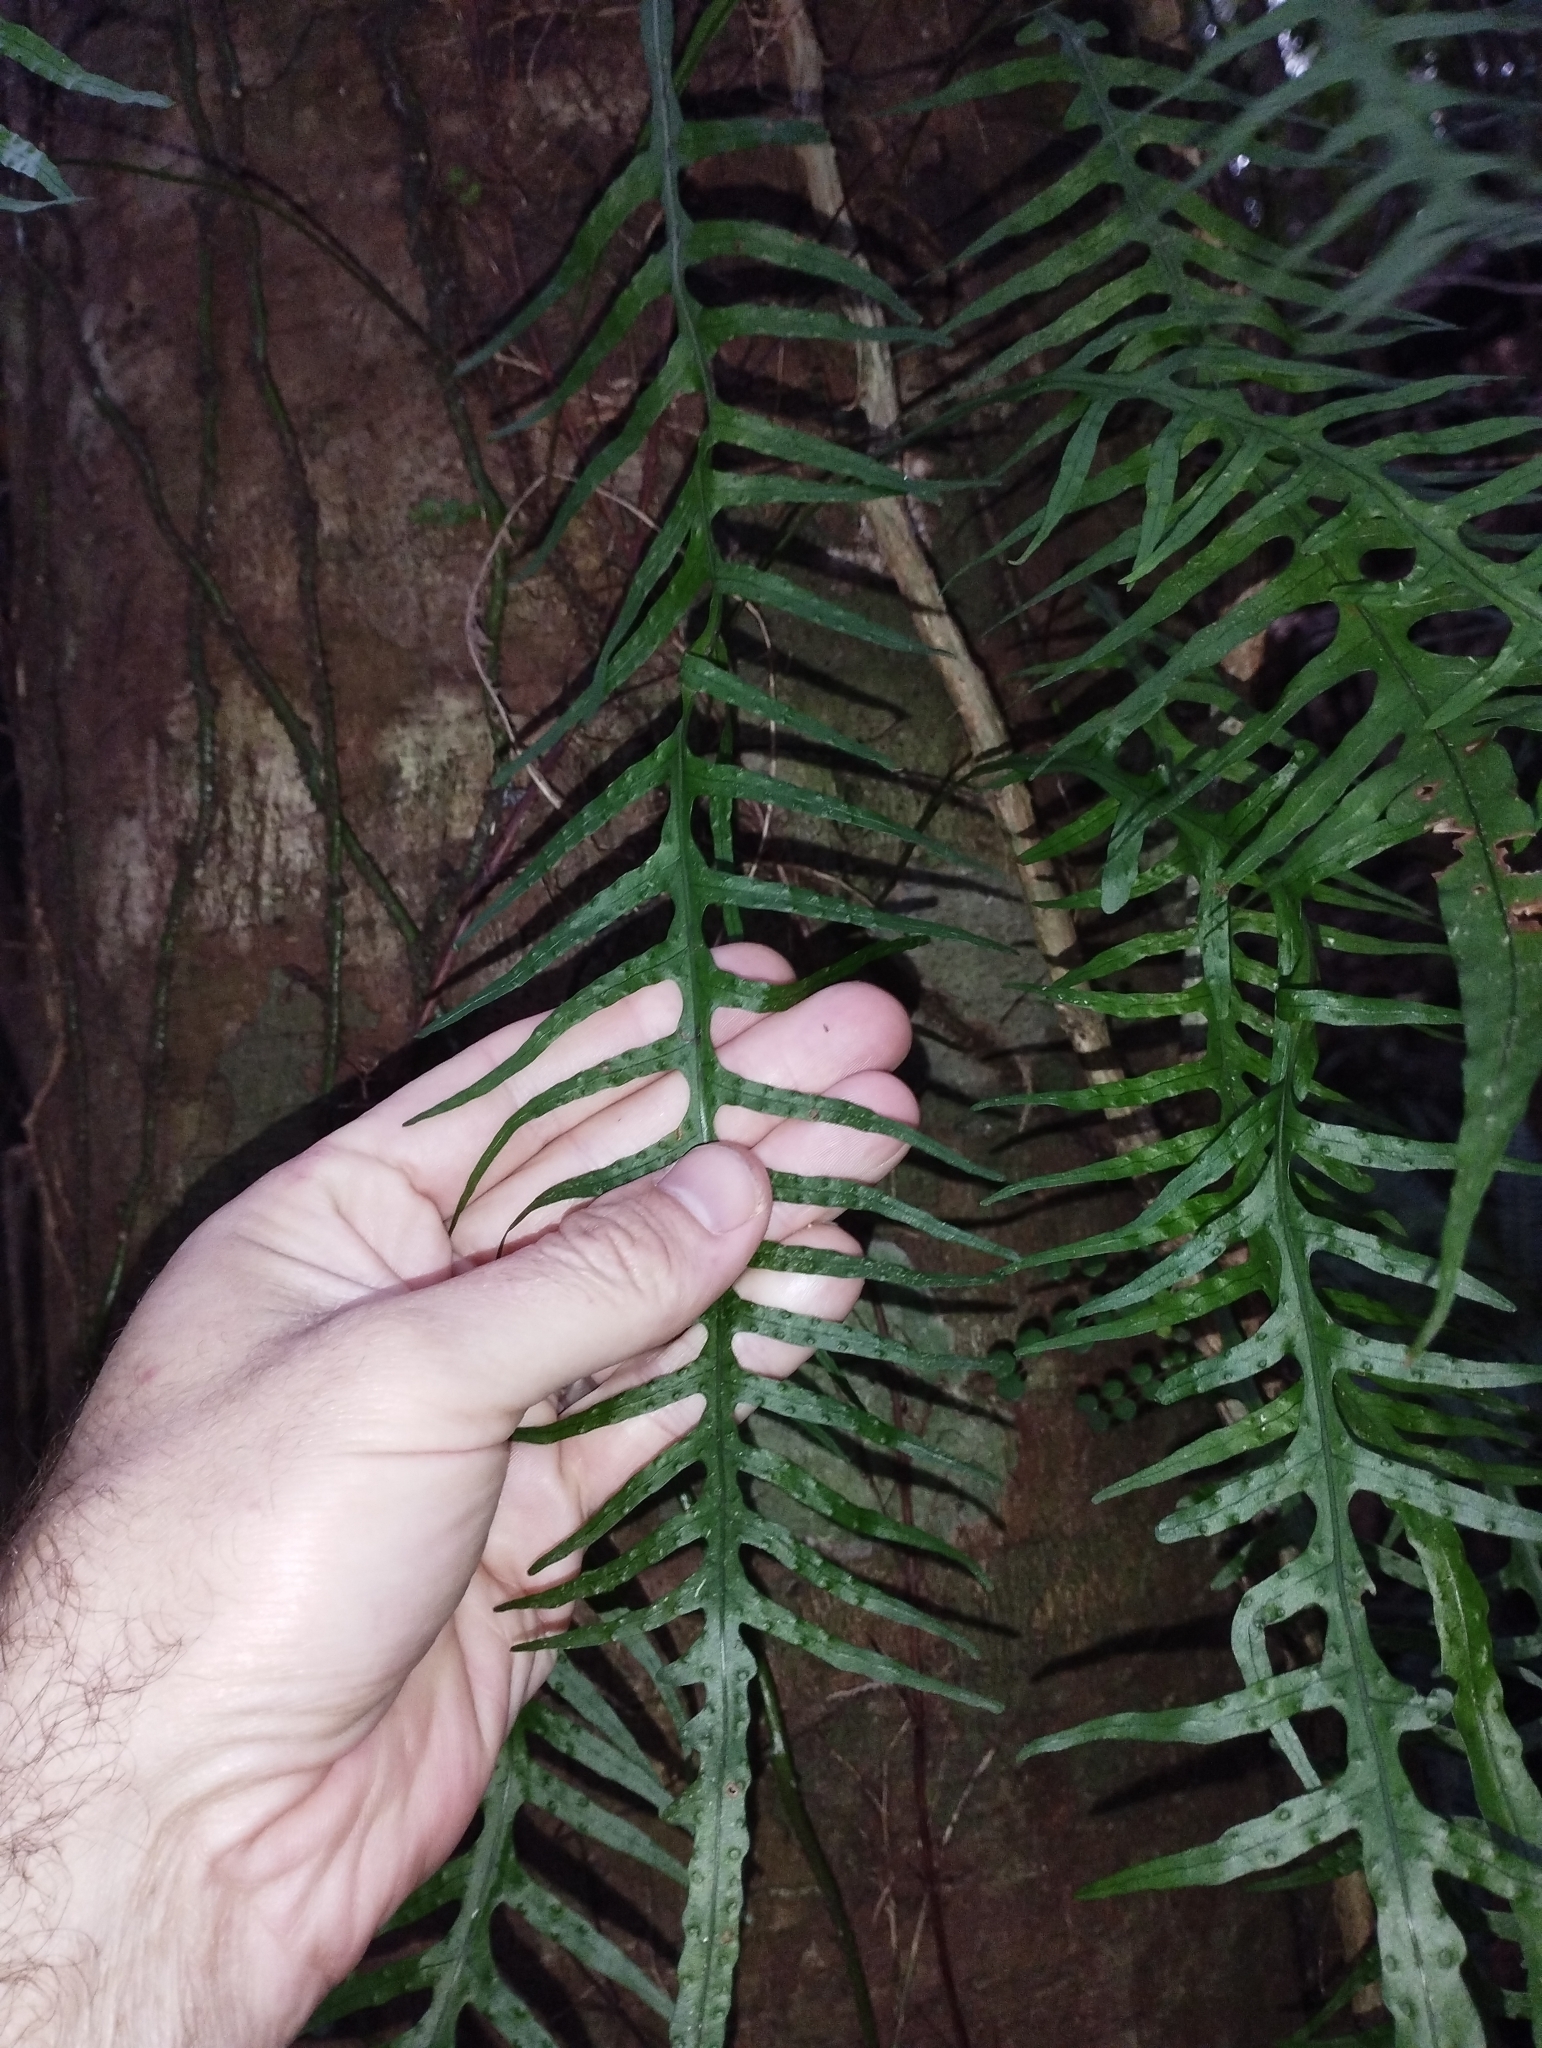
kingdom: Plantae
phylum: Tracheophyta
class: Polypodiopsida
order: Polypodiales
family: Polypodiaceae
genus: Lecanopteris
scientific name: Lecanopteris scandens
